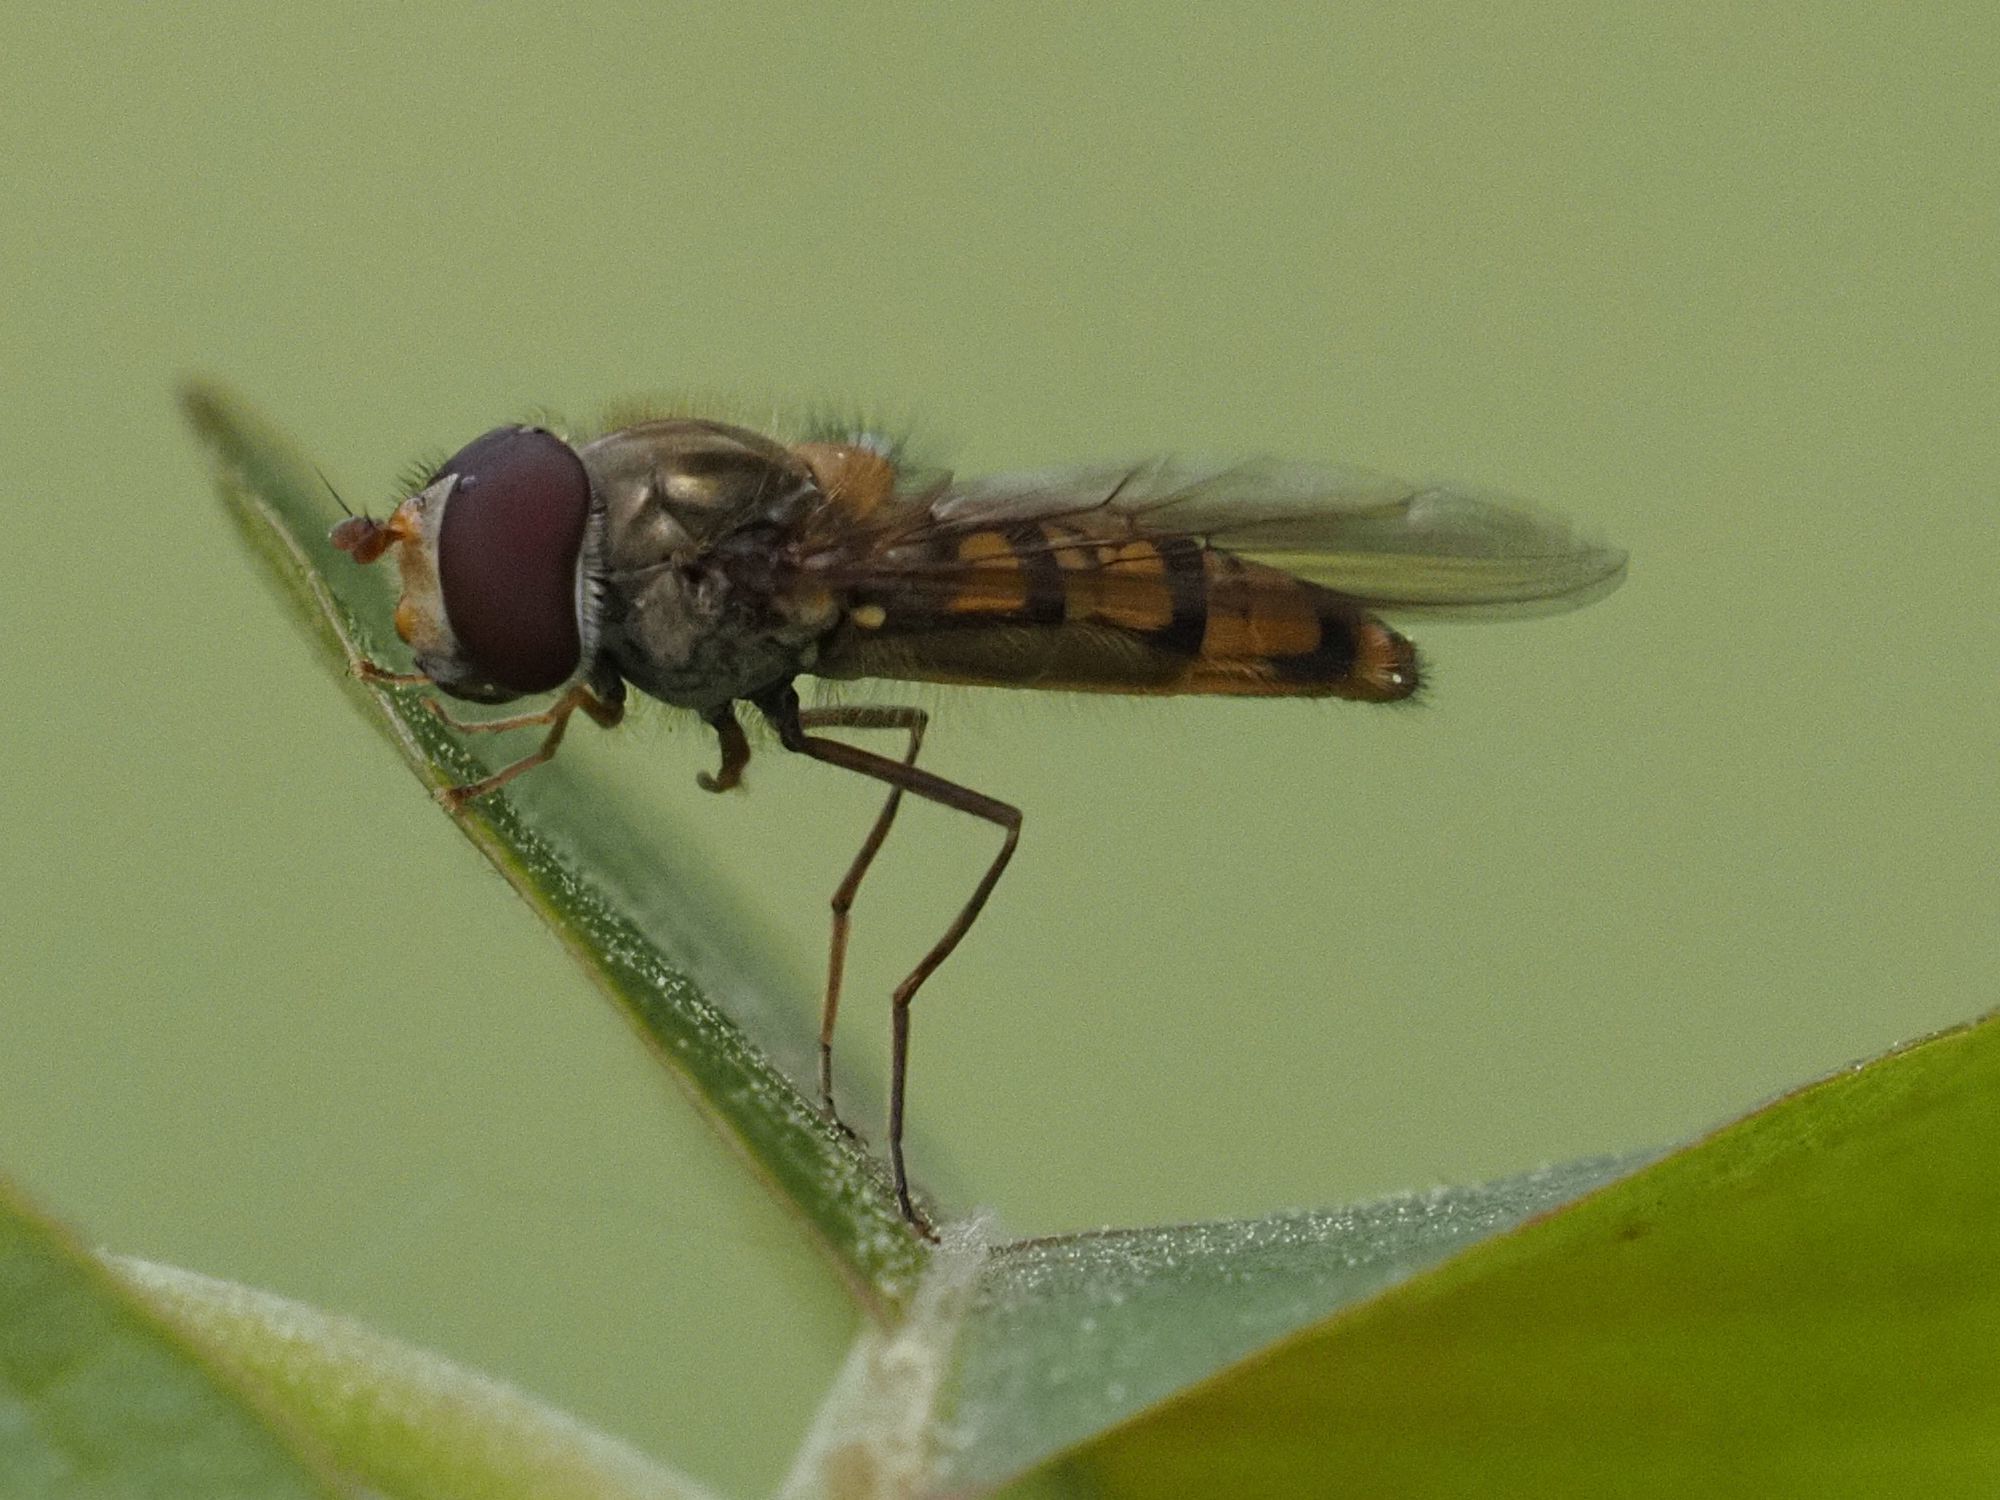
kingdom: Animalia
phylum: Arthropoda
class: Insecta
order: Diptera
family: Syrphidae
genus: Episyrphus
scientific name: Episyrphus balteatus
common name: Marmalade hoverfly
